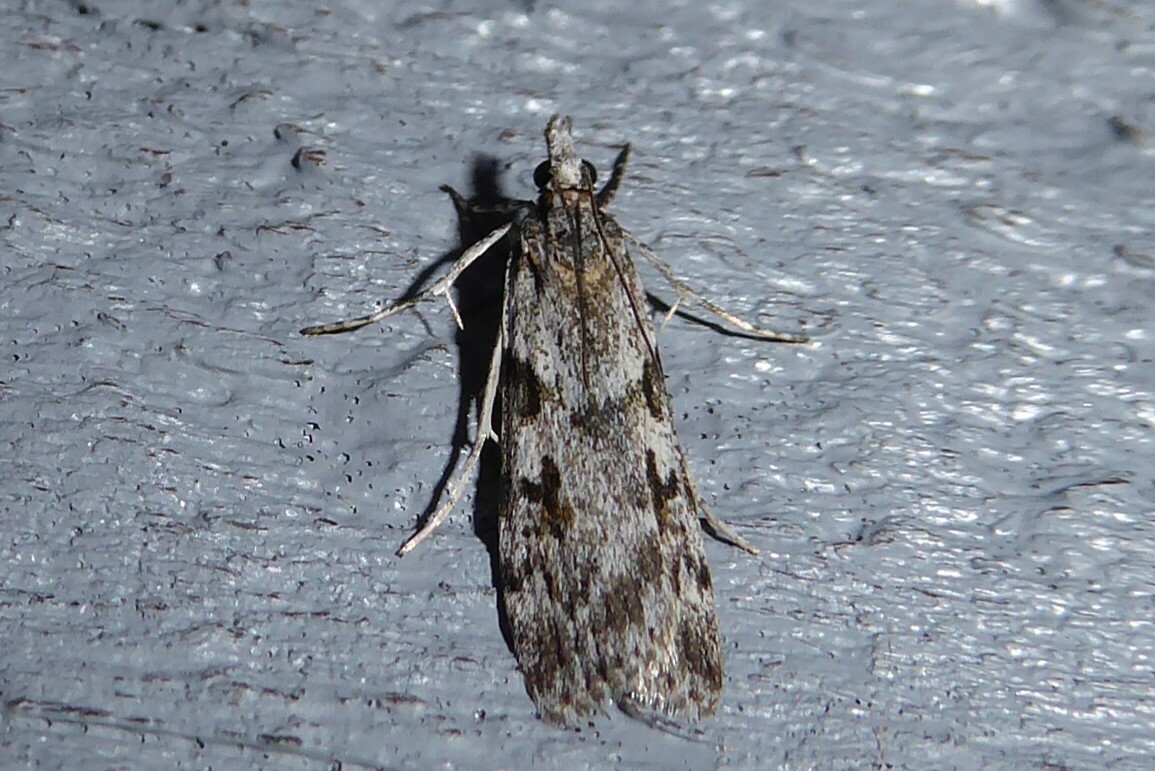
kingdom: Animalia
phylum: Arthropoda
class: Insecta
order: Lepidoptera
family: Crambidae
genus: Scoparia
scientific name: Scoparia halopis
